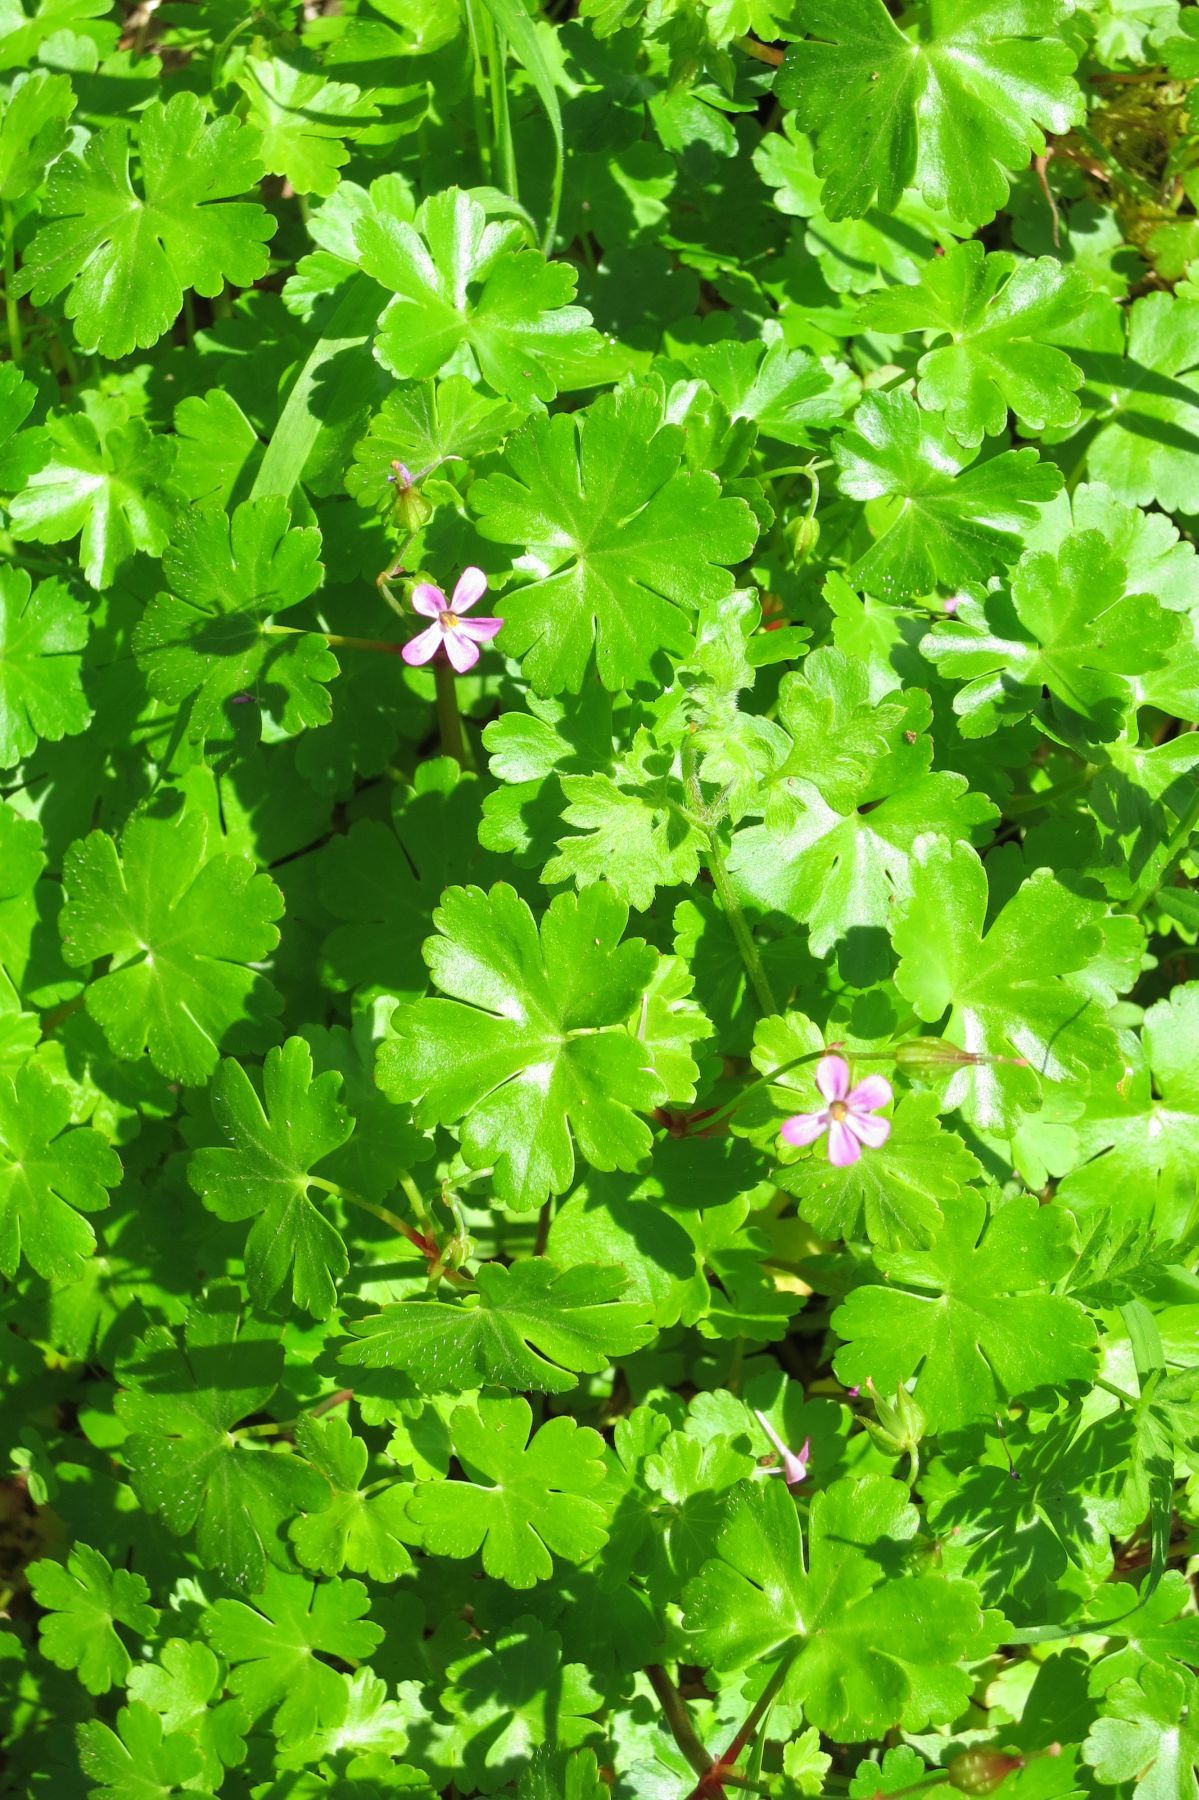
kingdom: Plantae
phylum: Tracheophyta
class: Magnoliopsida
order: Geraniales
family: Geraniaceae
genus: Geranium
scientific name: Geranium lucidum
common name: Shining crane's-bill
